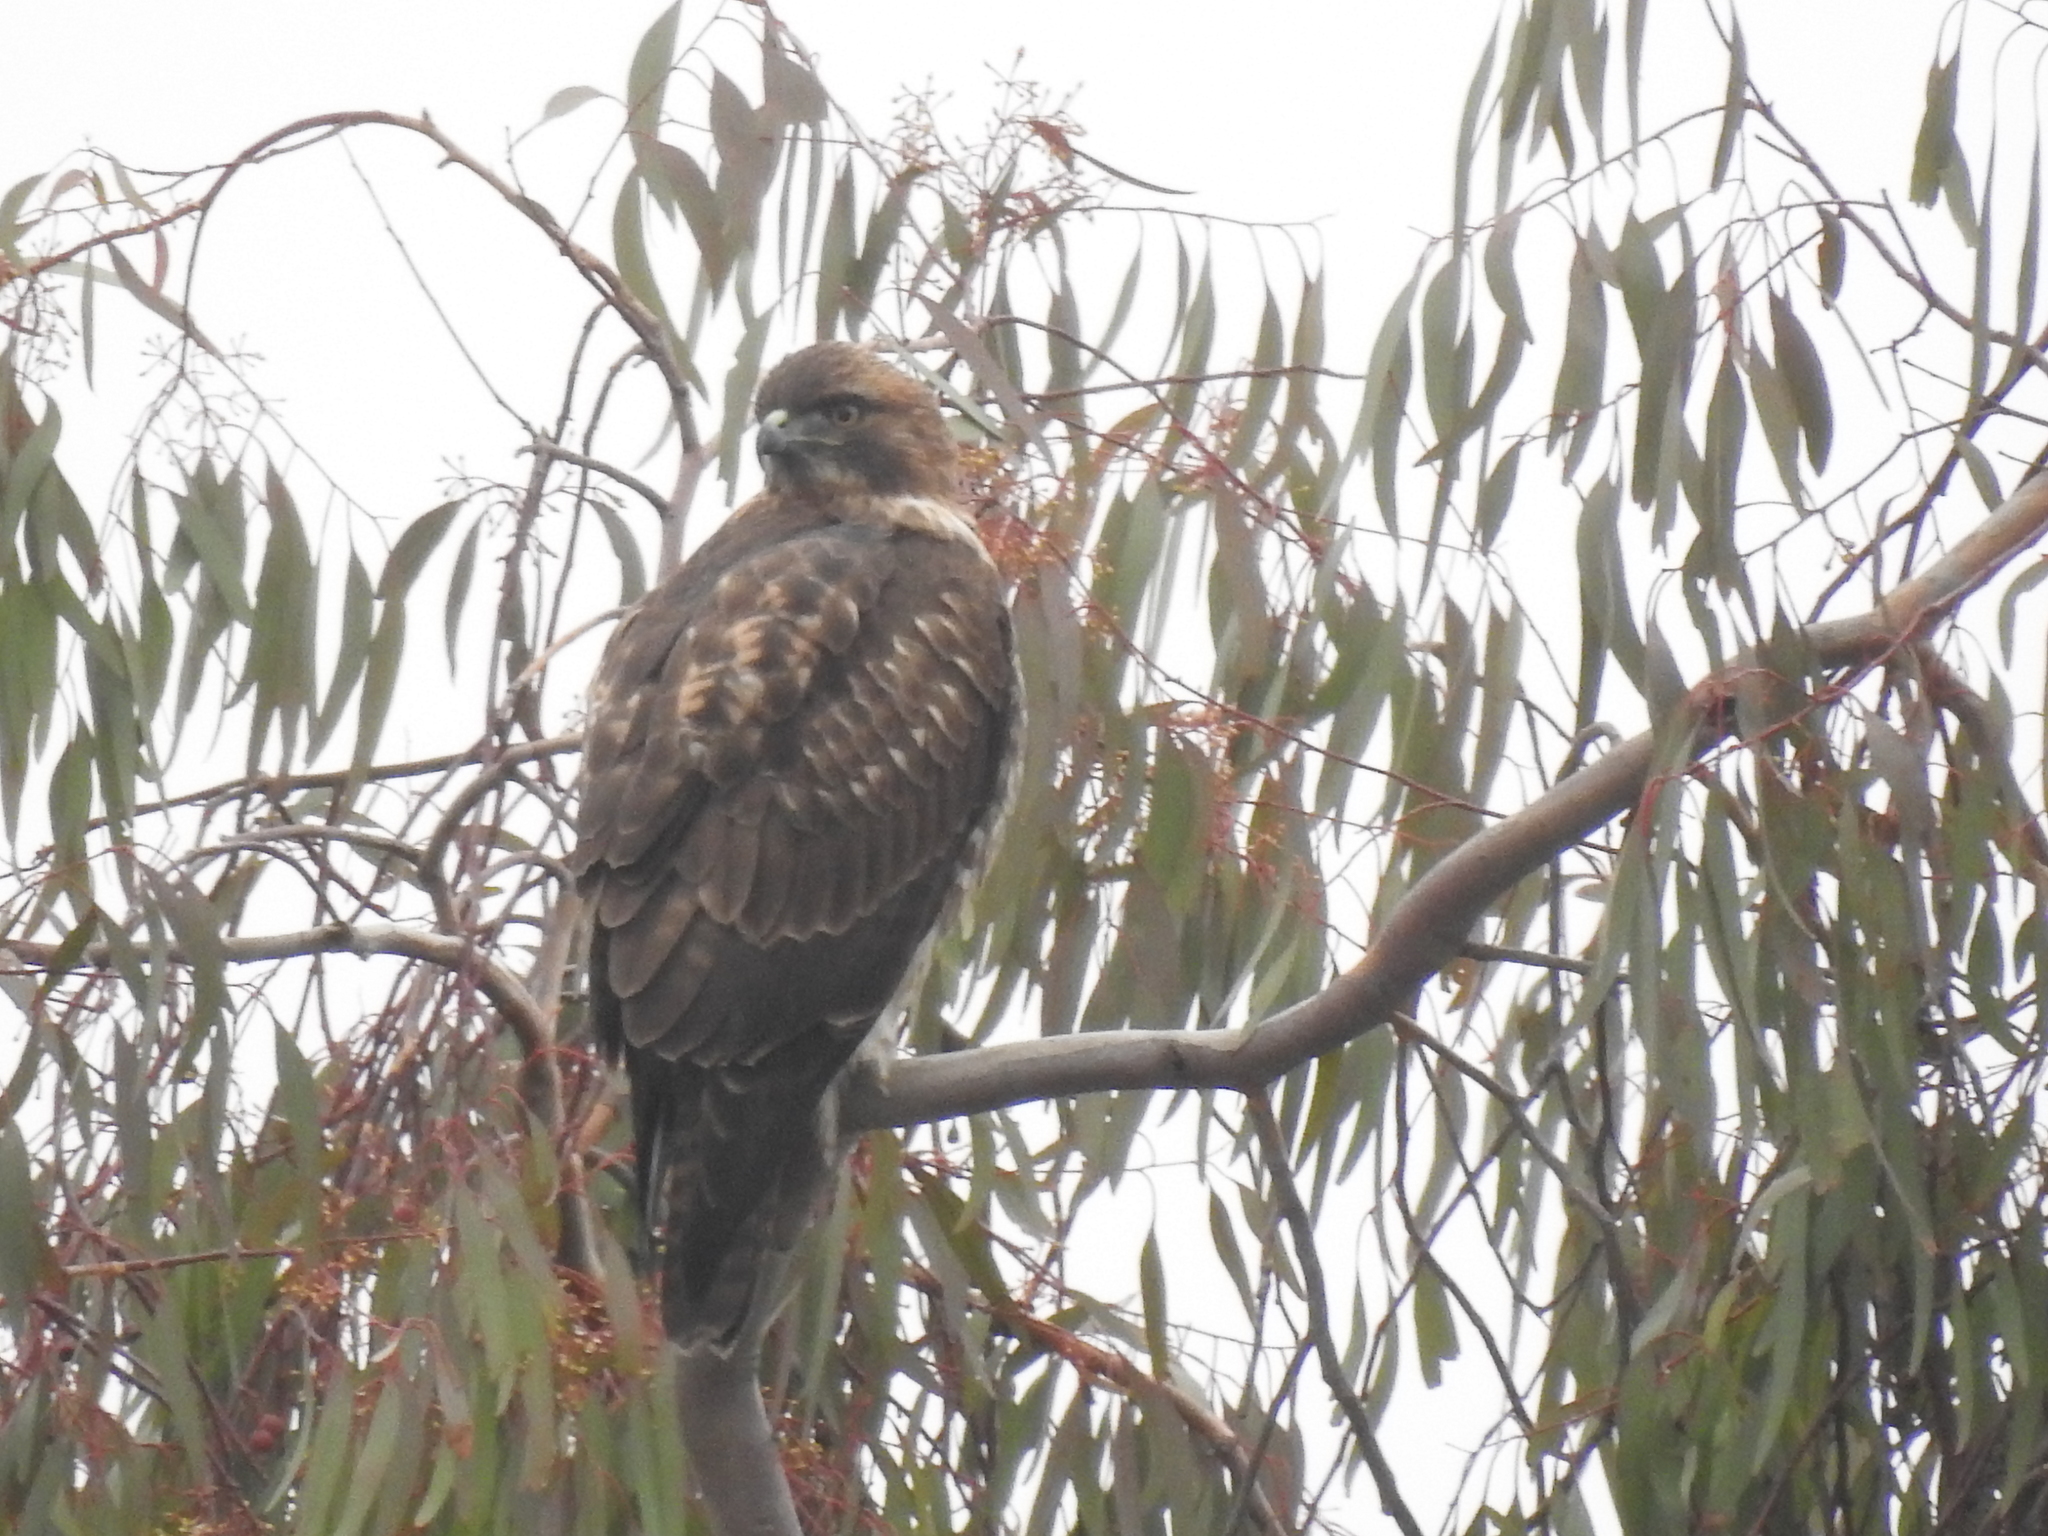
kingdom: Animalia
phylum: Chordata
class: Aves
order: Accipitriformes
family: Accipitridae
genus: Buteo
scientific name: Buteo jamaicensis
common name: Red-tailed hawk
